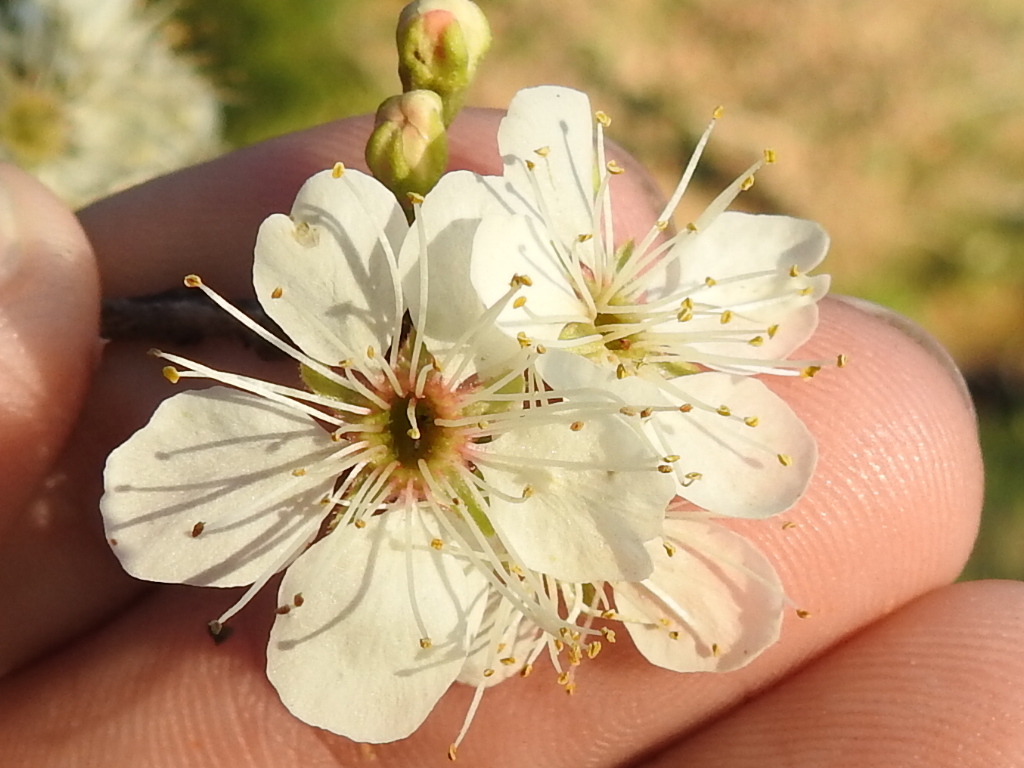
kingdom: Plantae
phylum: Tracheophyta
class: Magnoliopsida
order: Rosales
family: Rosaceae
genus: Prunus
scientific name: Prunus mexicana
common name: Mexican plum
